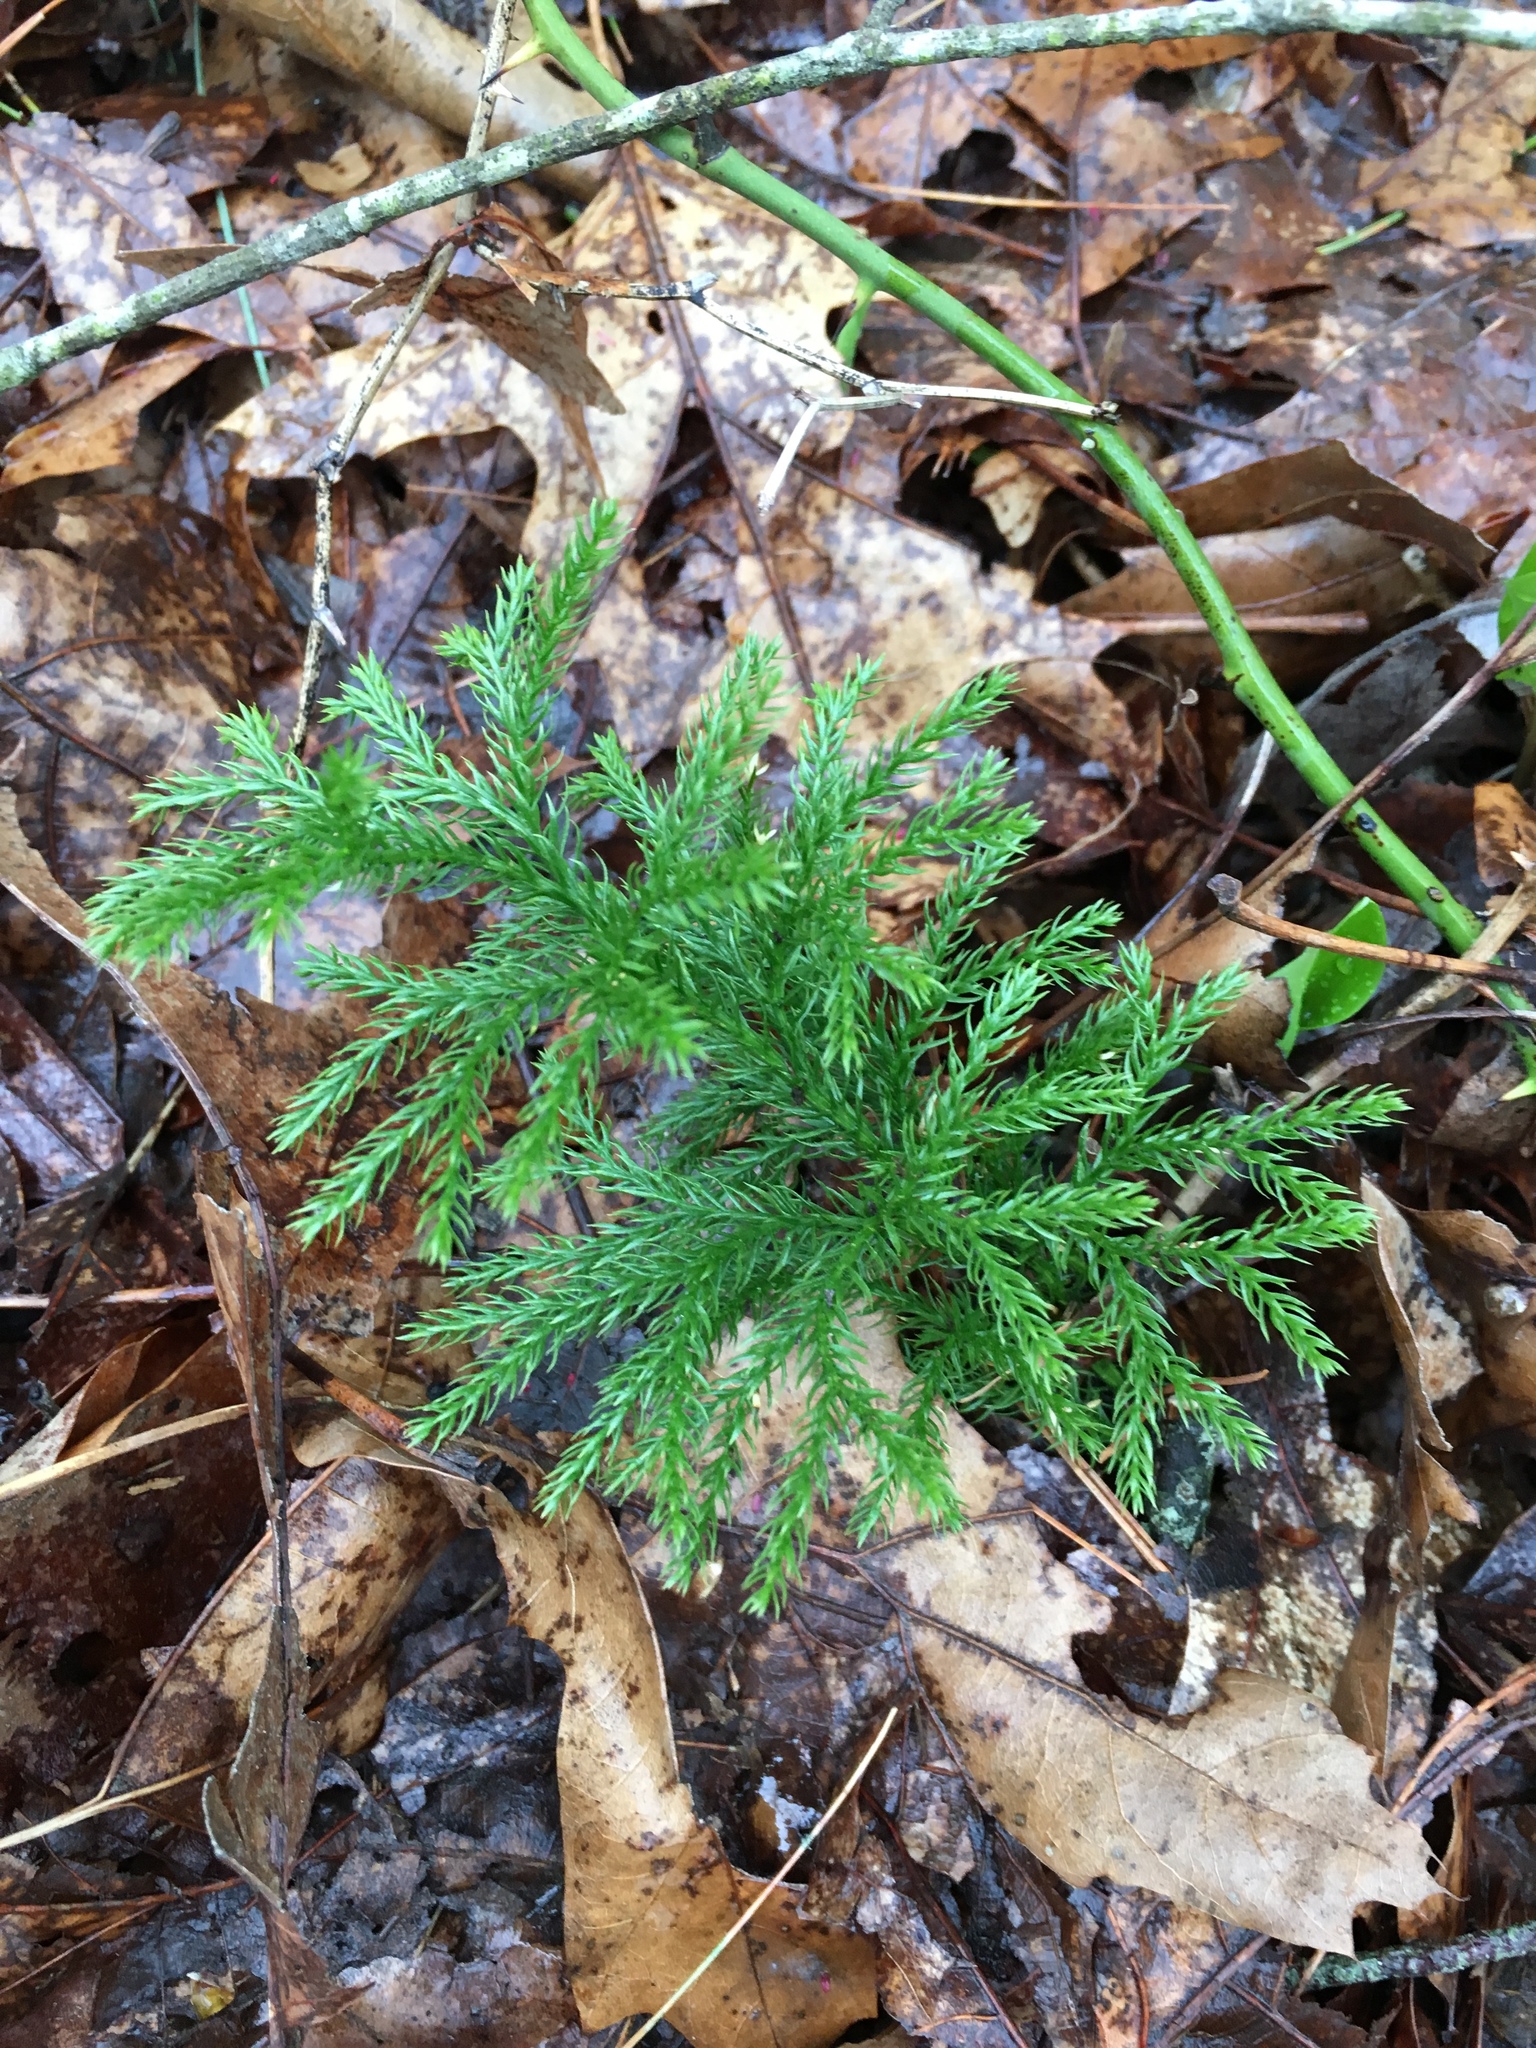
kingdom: Plantae
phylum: Tracheophyta
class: Lycopodiopsida
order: Lycopodiales
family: Lycopodiaceae
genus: Dendrolycopodium
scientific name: Dendrolycopodium dendroideum
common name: Northern tree-clubmoss
